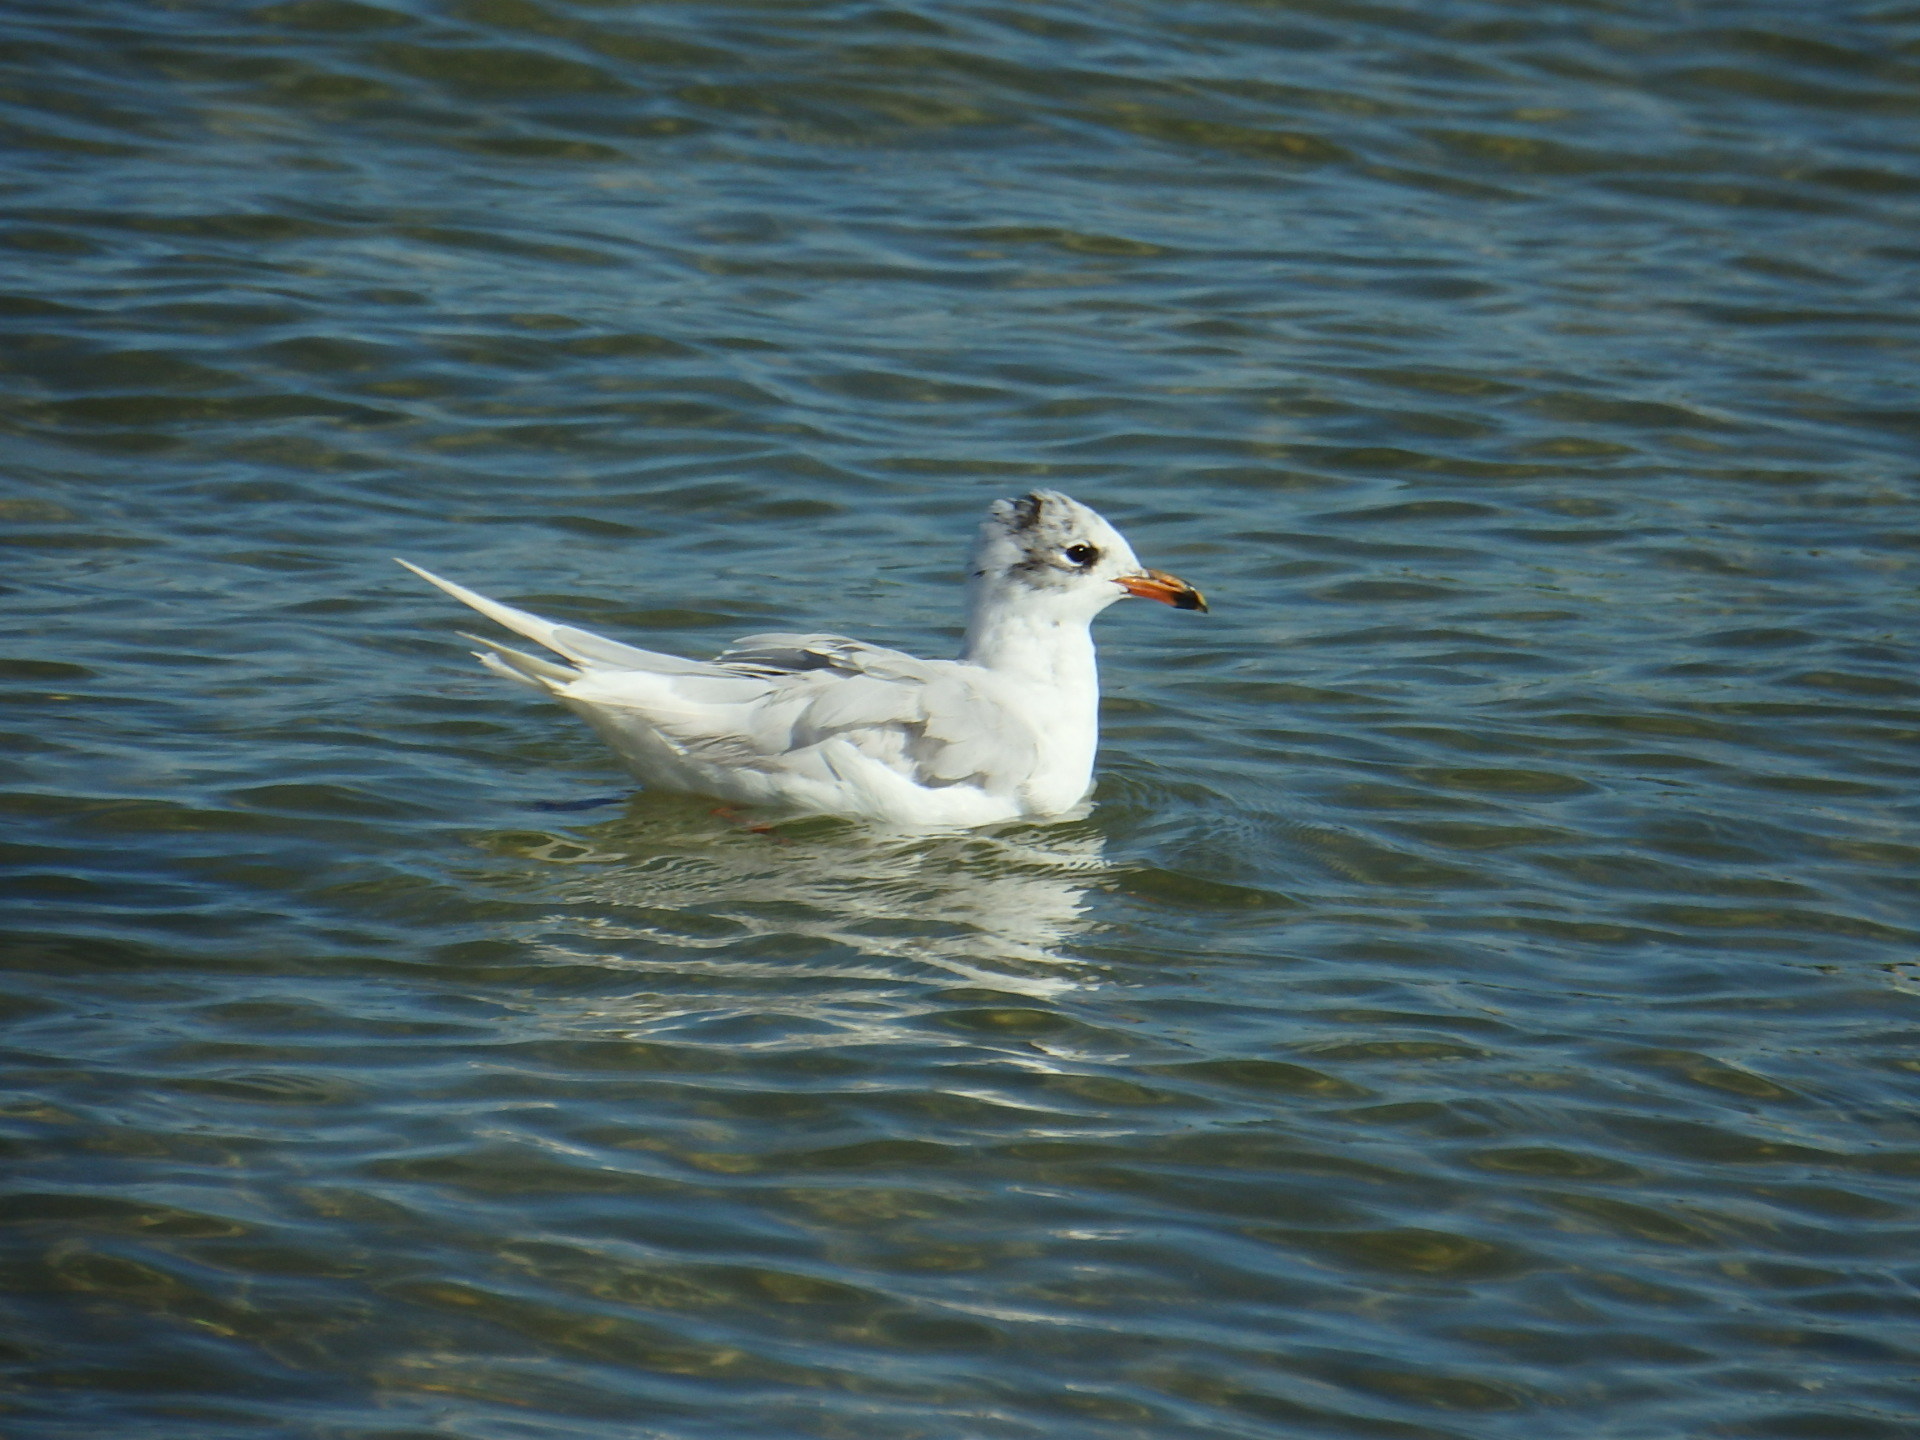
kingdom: Animalia
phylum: Chordata
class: Aves
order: Charadriiformes
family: Laridae
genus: Ichthyaetus
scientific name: Ichthyaetus melanocephalus
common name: Mediterranean gull
